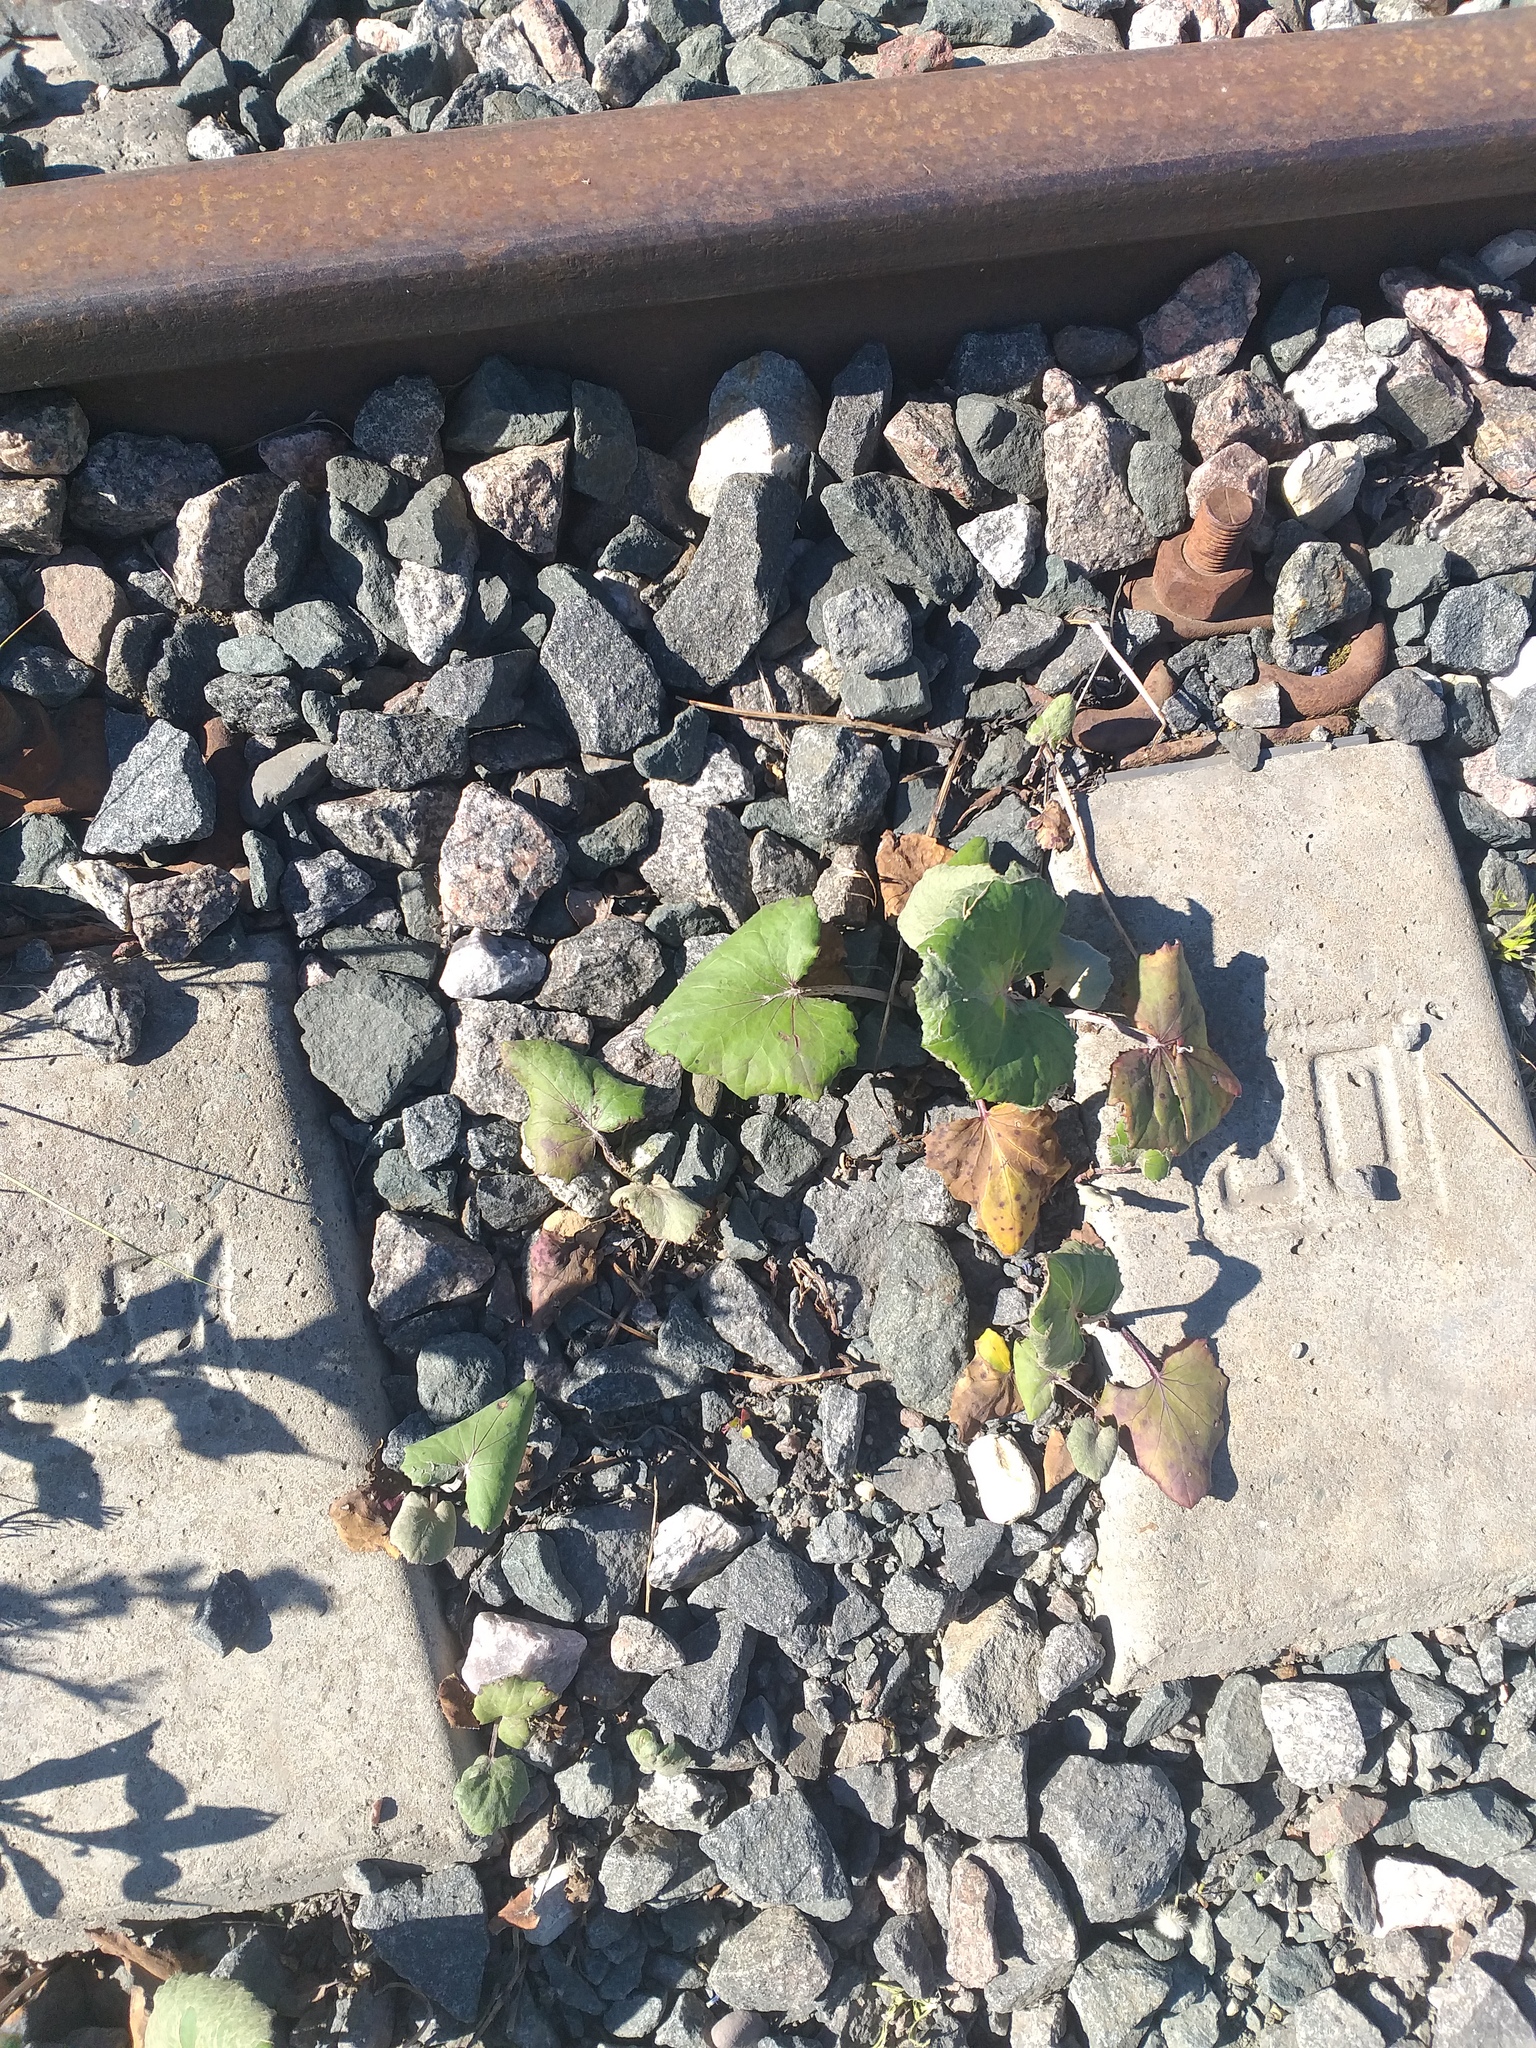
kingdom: Plantae
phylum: Tracheophyta
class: Magnoliopsida
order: Asterales
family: Asteraceae
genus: Tussilago
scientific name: Tussilago farfara
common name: Coltsfoot
